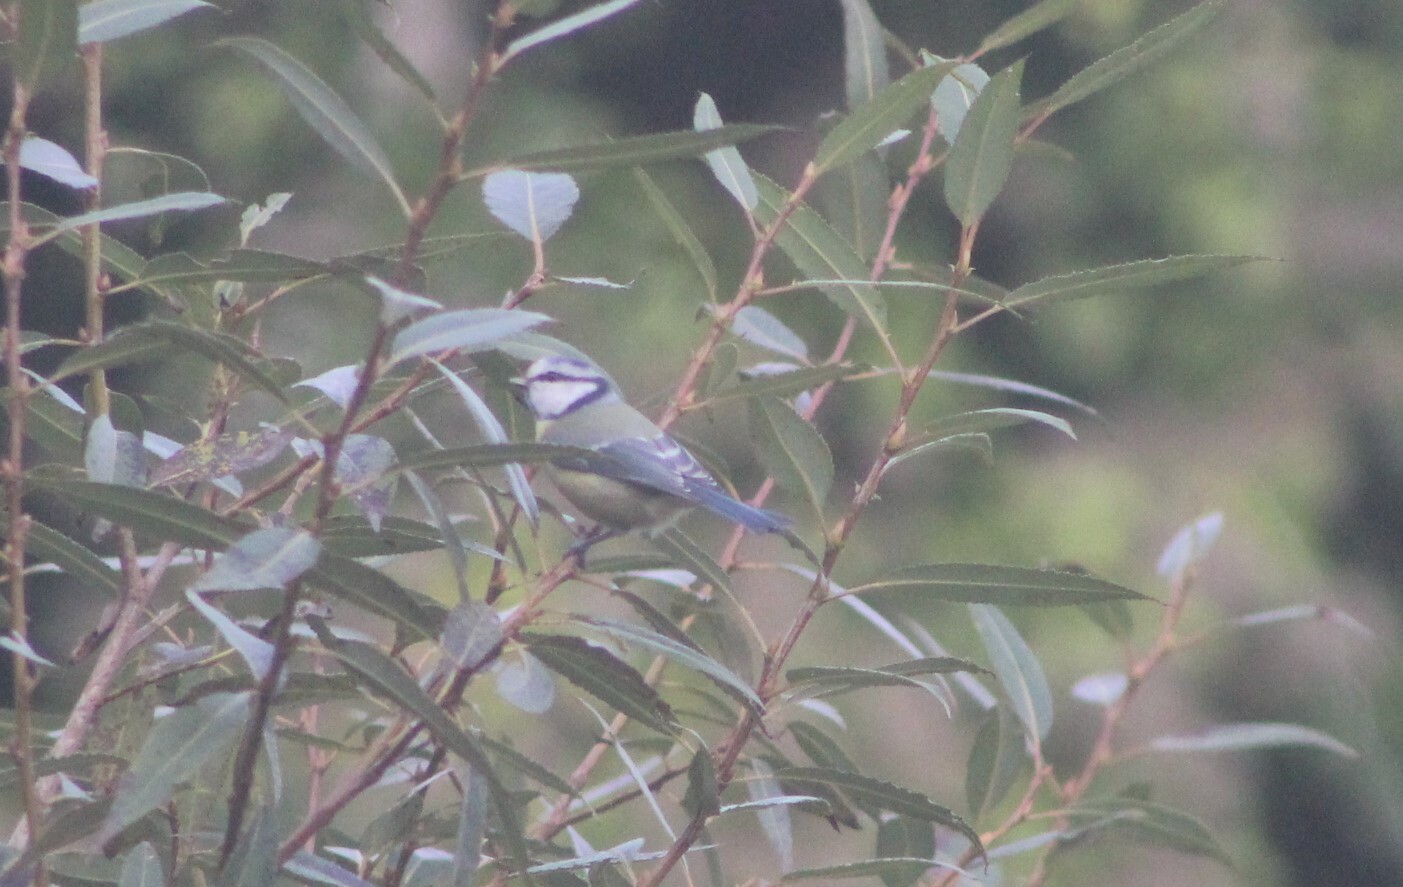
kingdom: Animalia
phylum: Chordata
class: Aves
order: Passeriformes
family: Paridae
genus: Cyanistes
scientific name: Cyanistes caeruleus
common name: Eurasian blue tit
